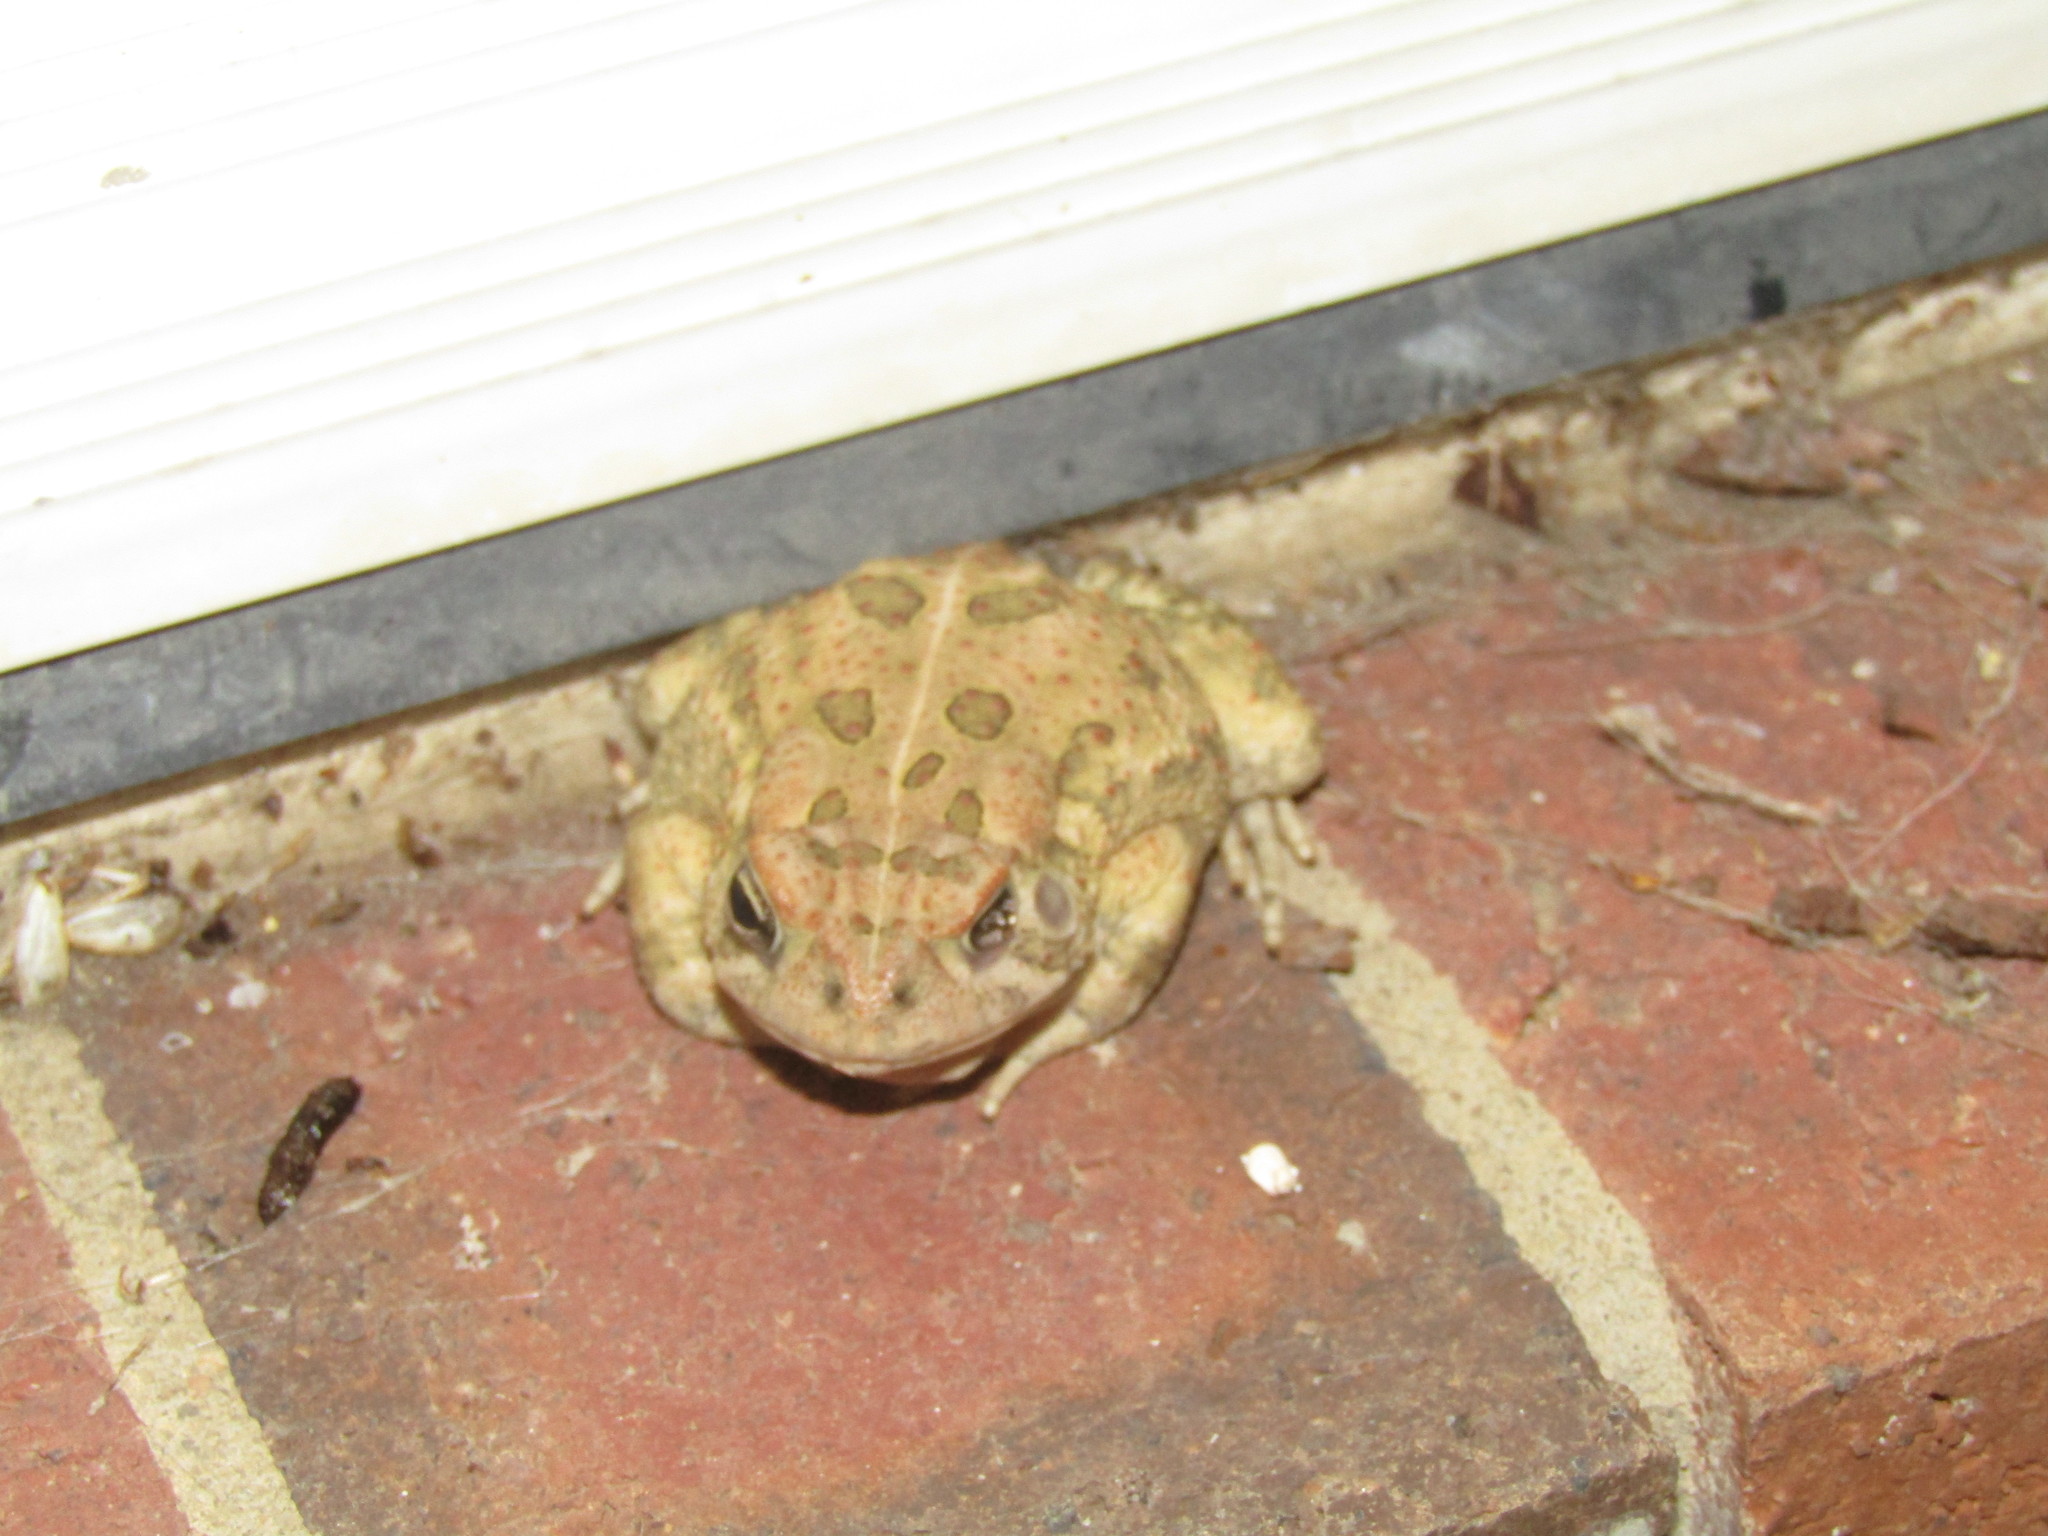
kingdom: Animalia
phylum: Chordata
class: Amphibia
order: Anura
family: Bufonidae
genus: Anaxyrus
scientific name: Anaxyrus fowleri
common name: Fowler's toad
